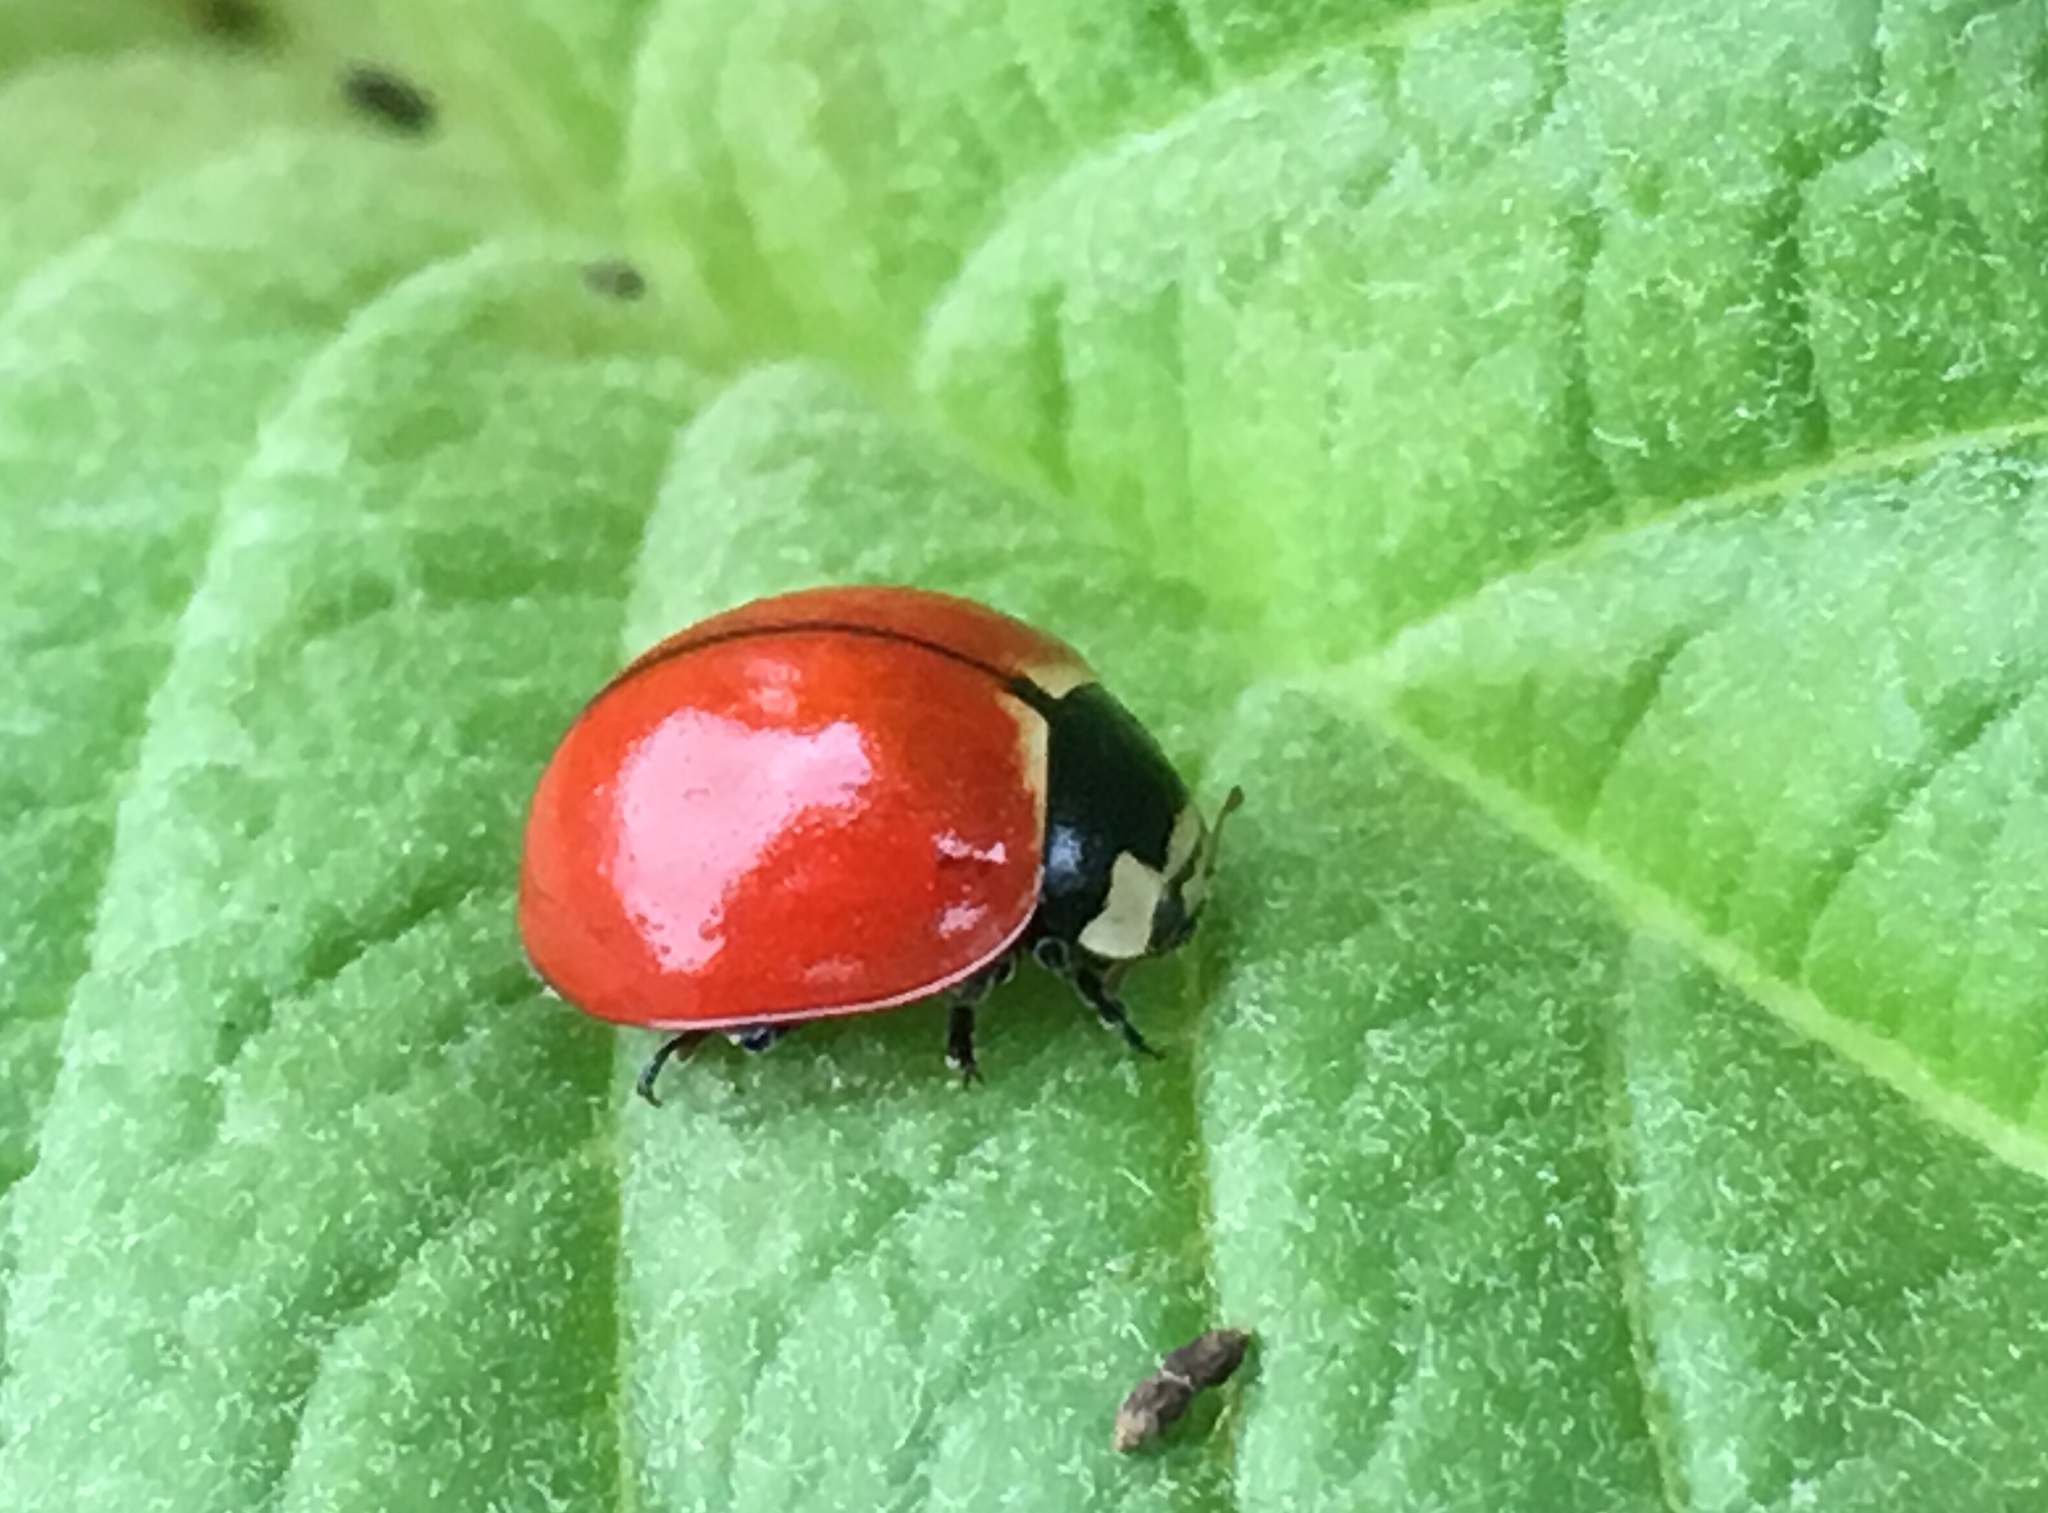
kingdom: Animalia
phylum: Arthropoda
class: Insecta
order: Coleoptera
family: Coccinellidae
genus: Coccinella
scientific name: Coccinella novemnotata
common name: Nine-spotted lady beetle
